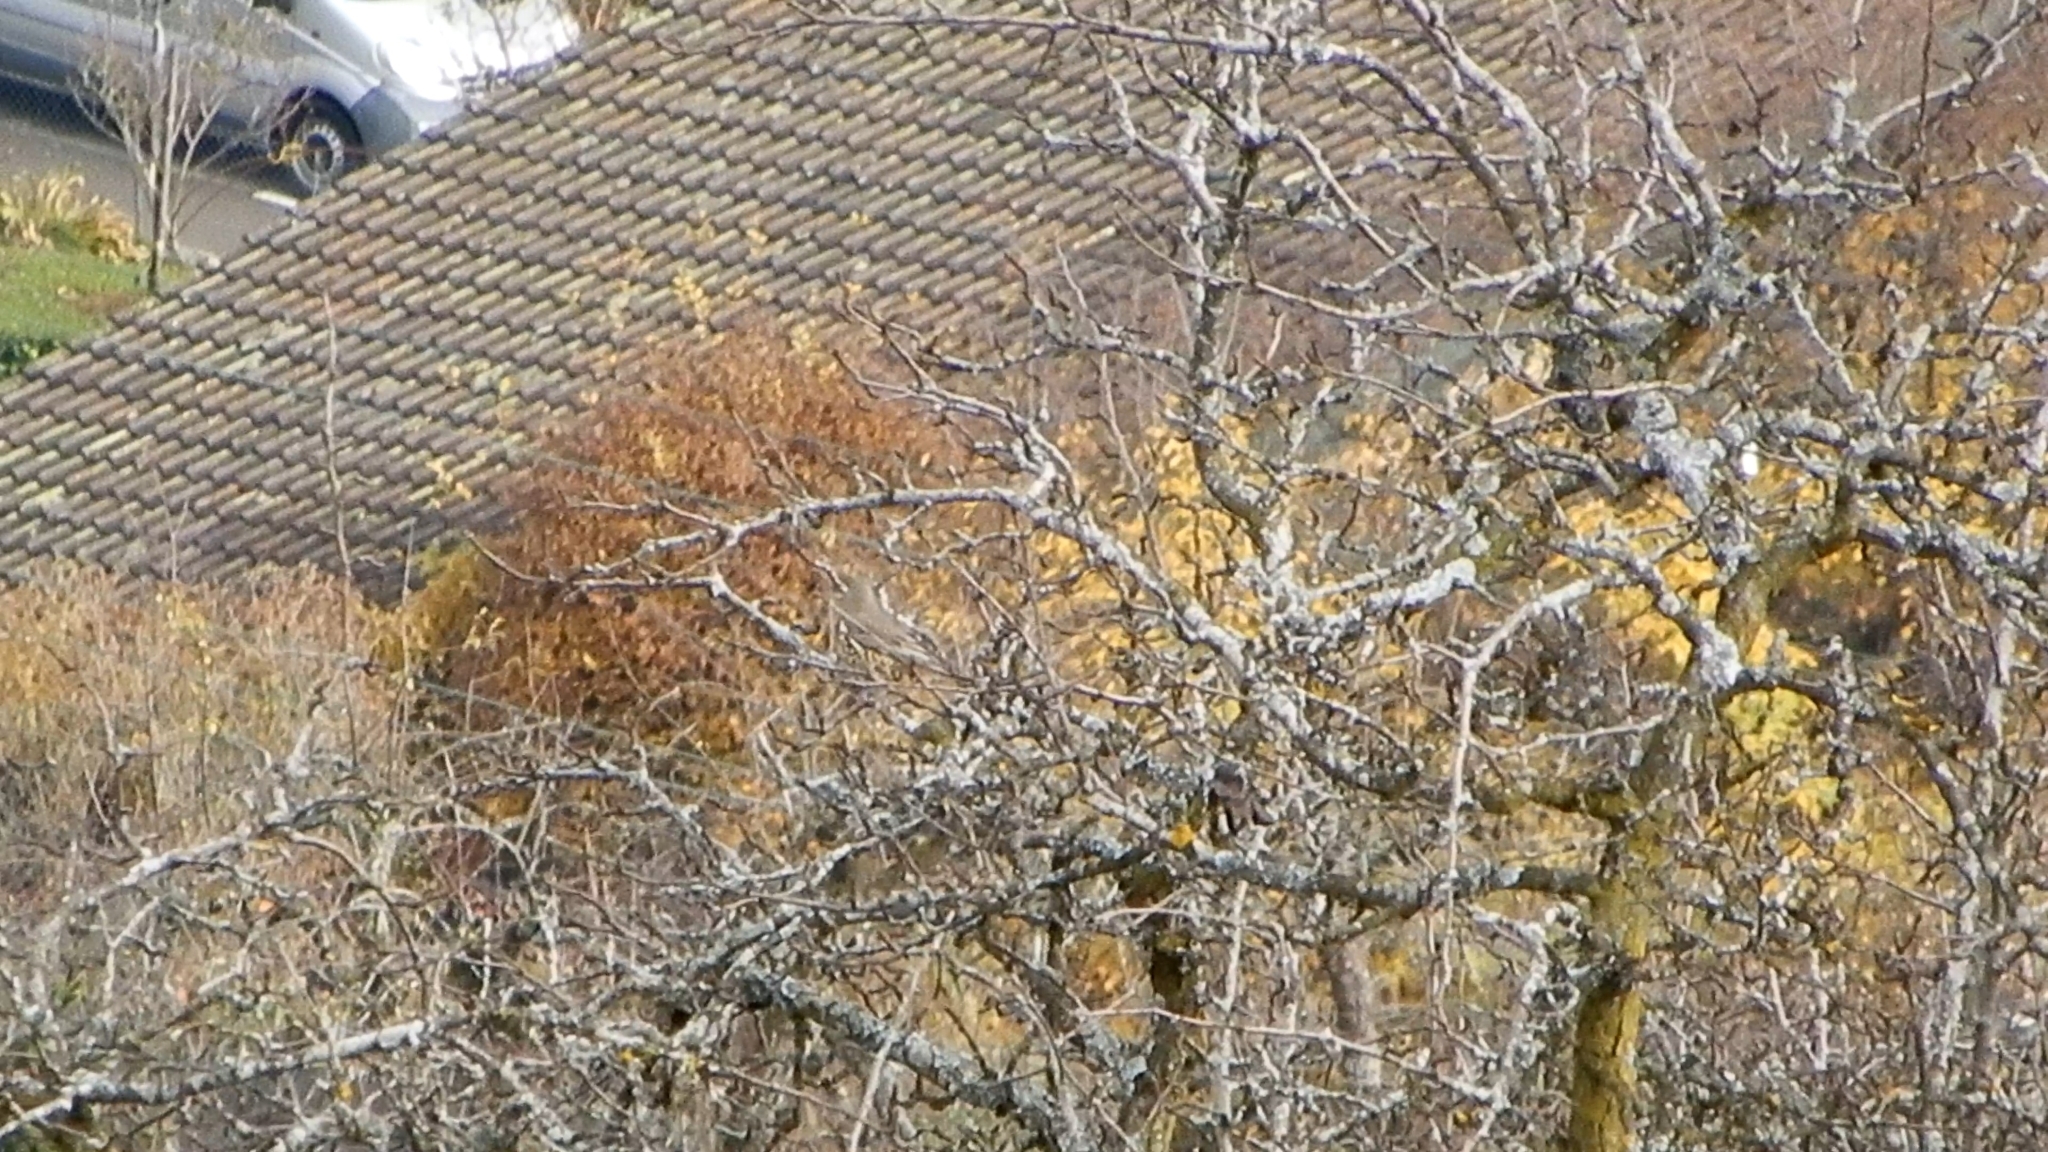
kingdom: Animalia
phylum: Chordata
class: Aves
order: Passeriformes
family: Turdidae
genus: Turdus
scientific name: Turdus viscivorus
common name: Mistle thrush
